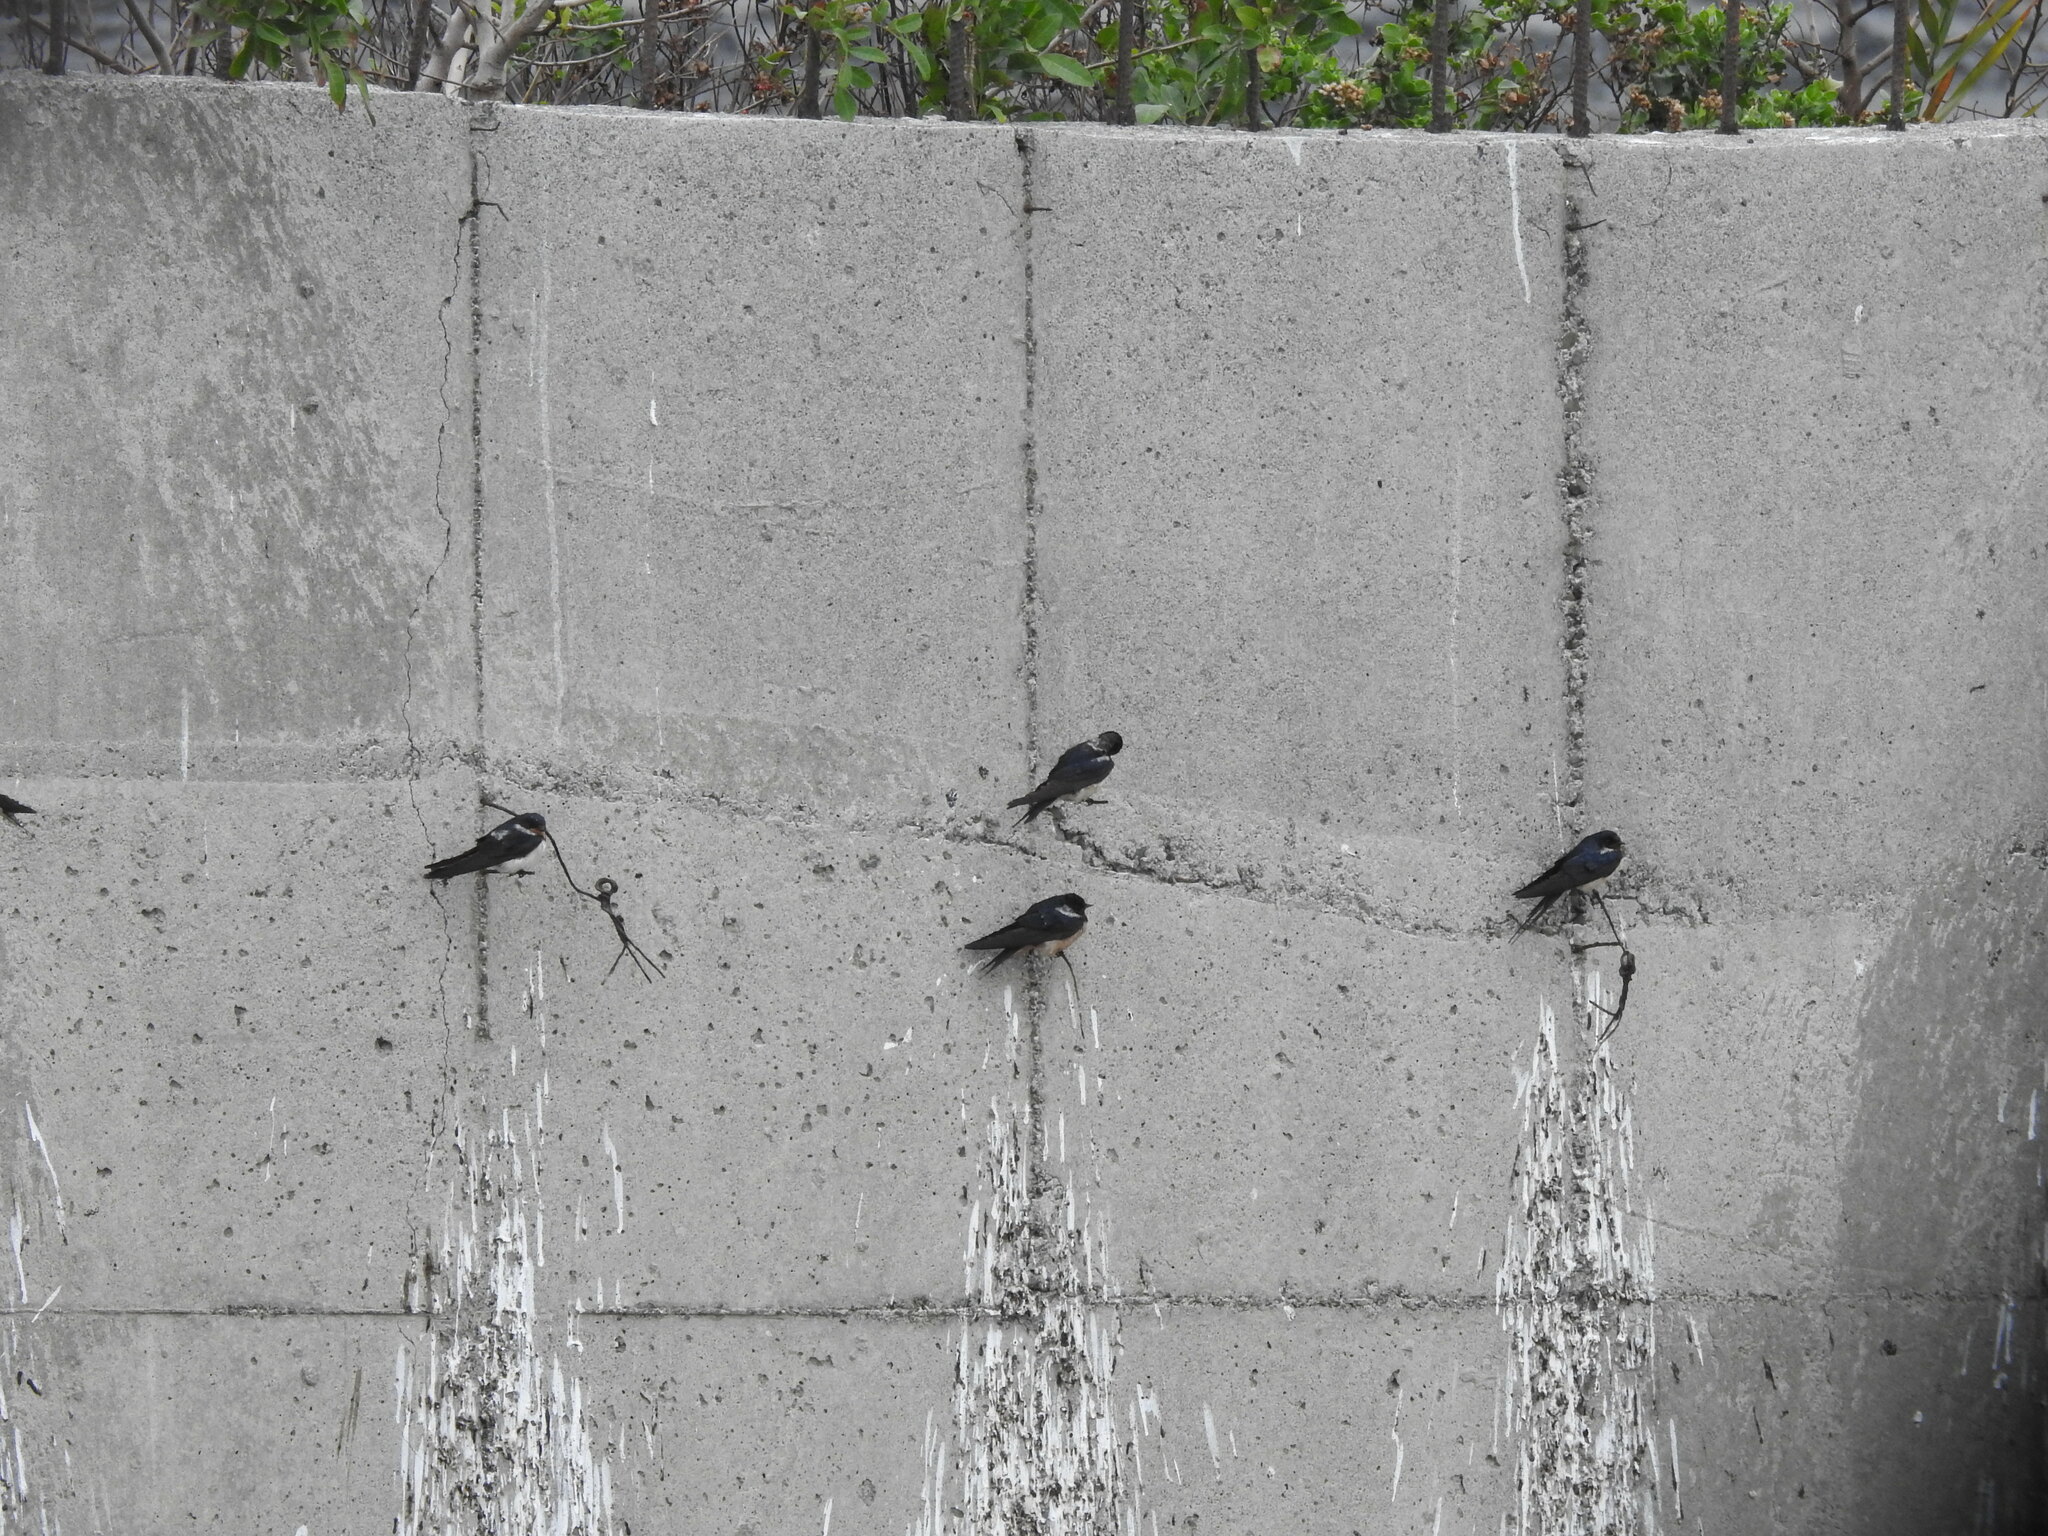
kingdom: Animalia
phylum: Chordata
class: Aves
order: Passeriformes
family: Hirundinidae
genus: Hirundo
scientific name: Hirundo rustica
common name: Barn swallow
